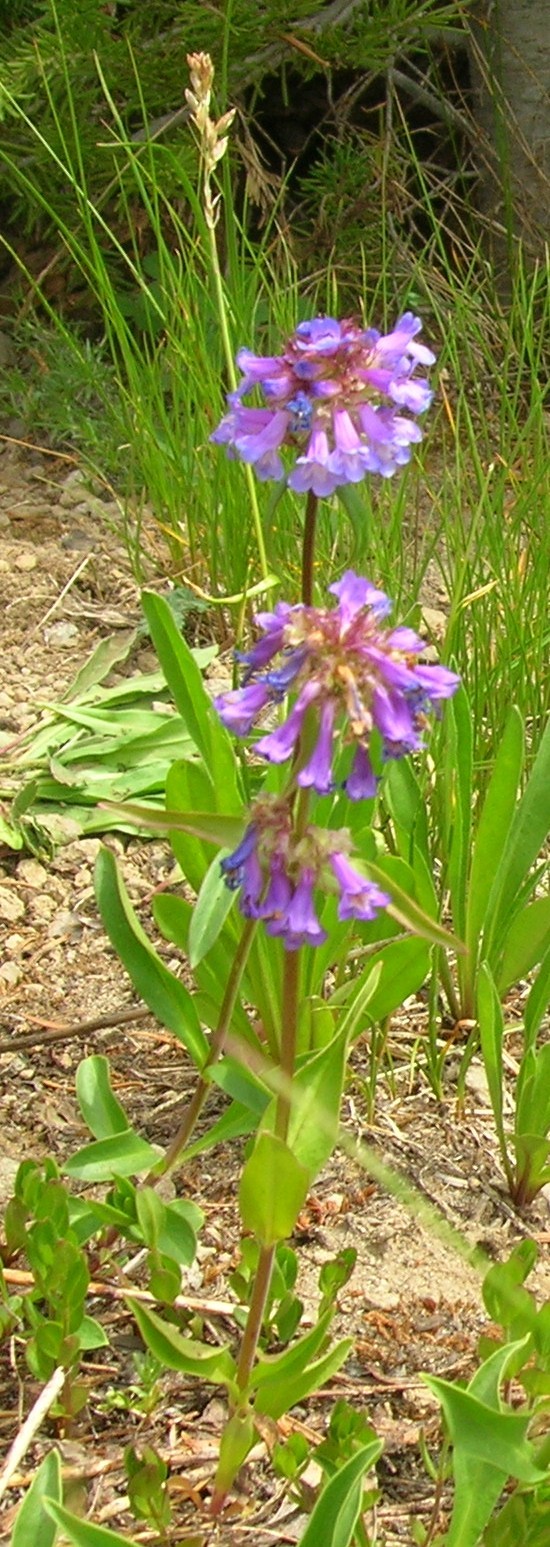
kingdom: Plantae
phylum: Tracheophyta
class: Magnoliopsida
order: Lamiales
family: Plantaginaceae
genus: Penstemon
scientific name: Penstemon procerus
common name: Small-flower penstemon
